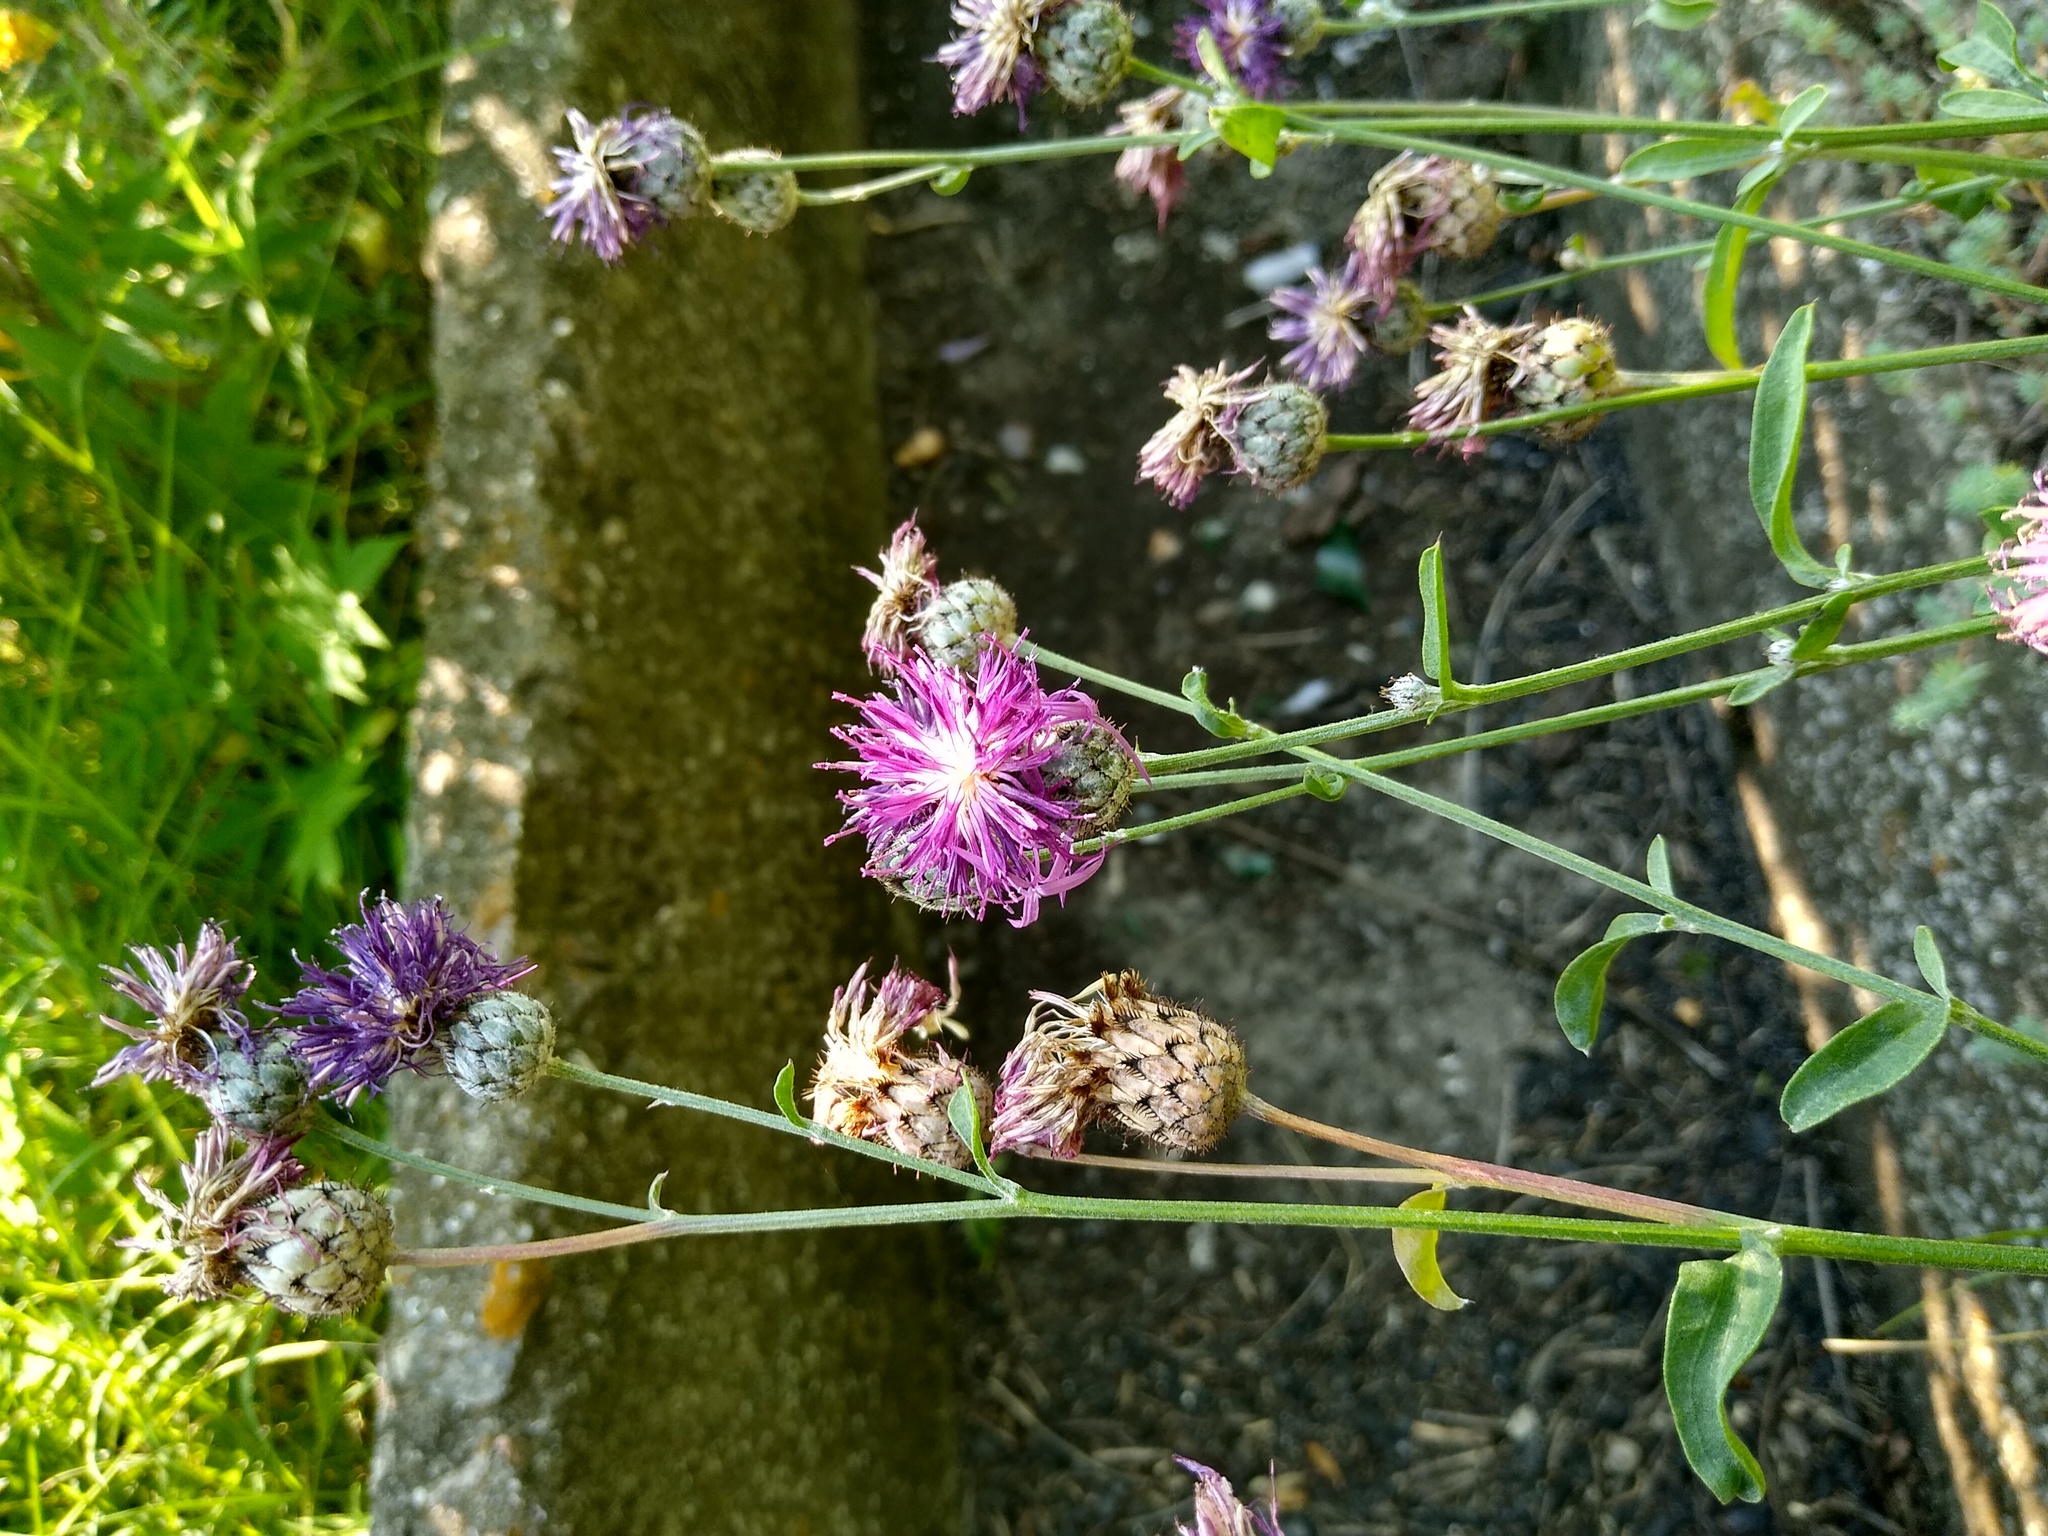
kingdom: Plantae
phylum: Tracheophyta
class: Magnoliopsida
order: Asterales
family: Asteraceae
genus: Centaurea
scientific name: Centaurea scabiosa
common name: Greater knapweed
